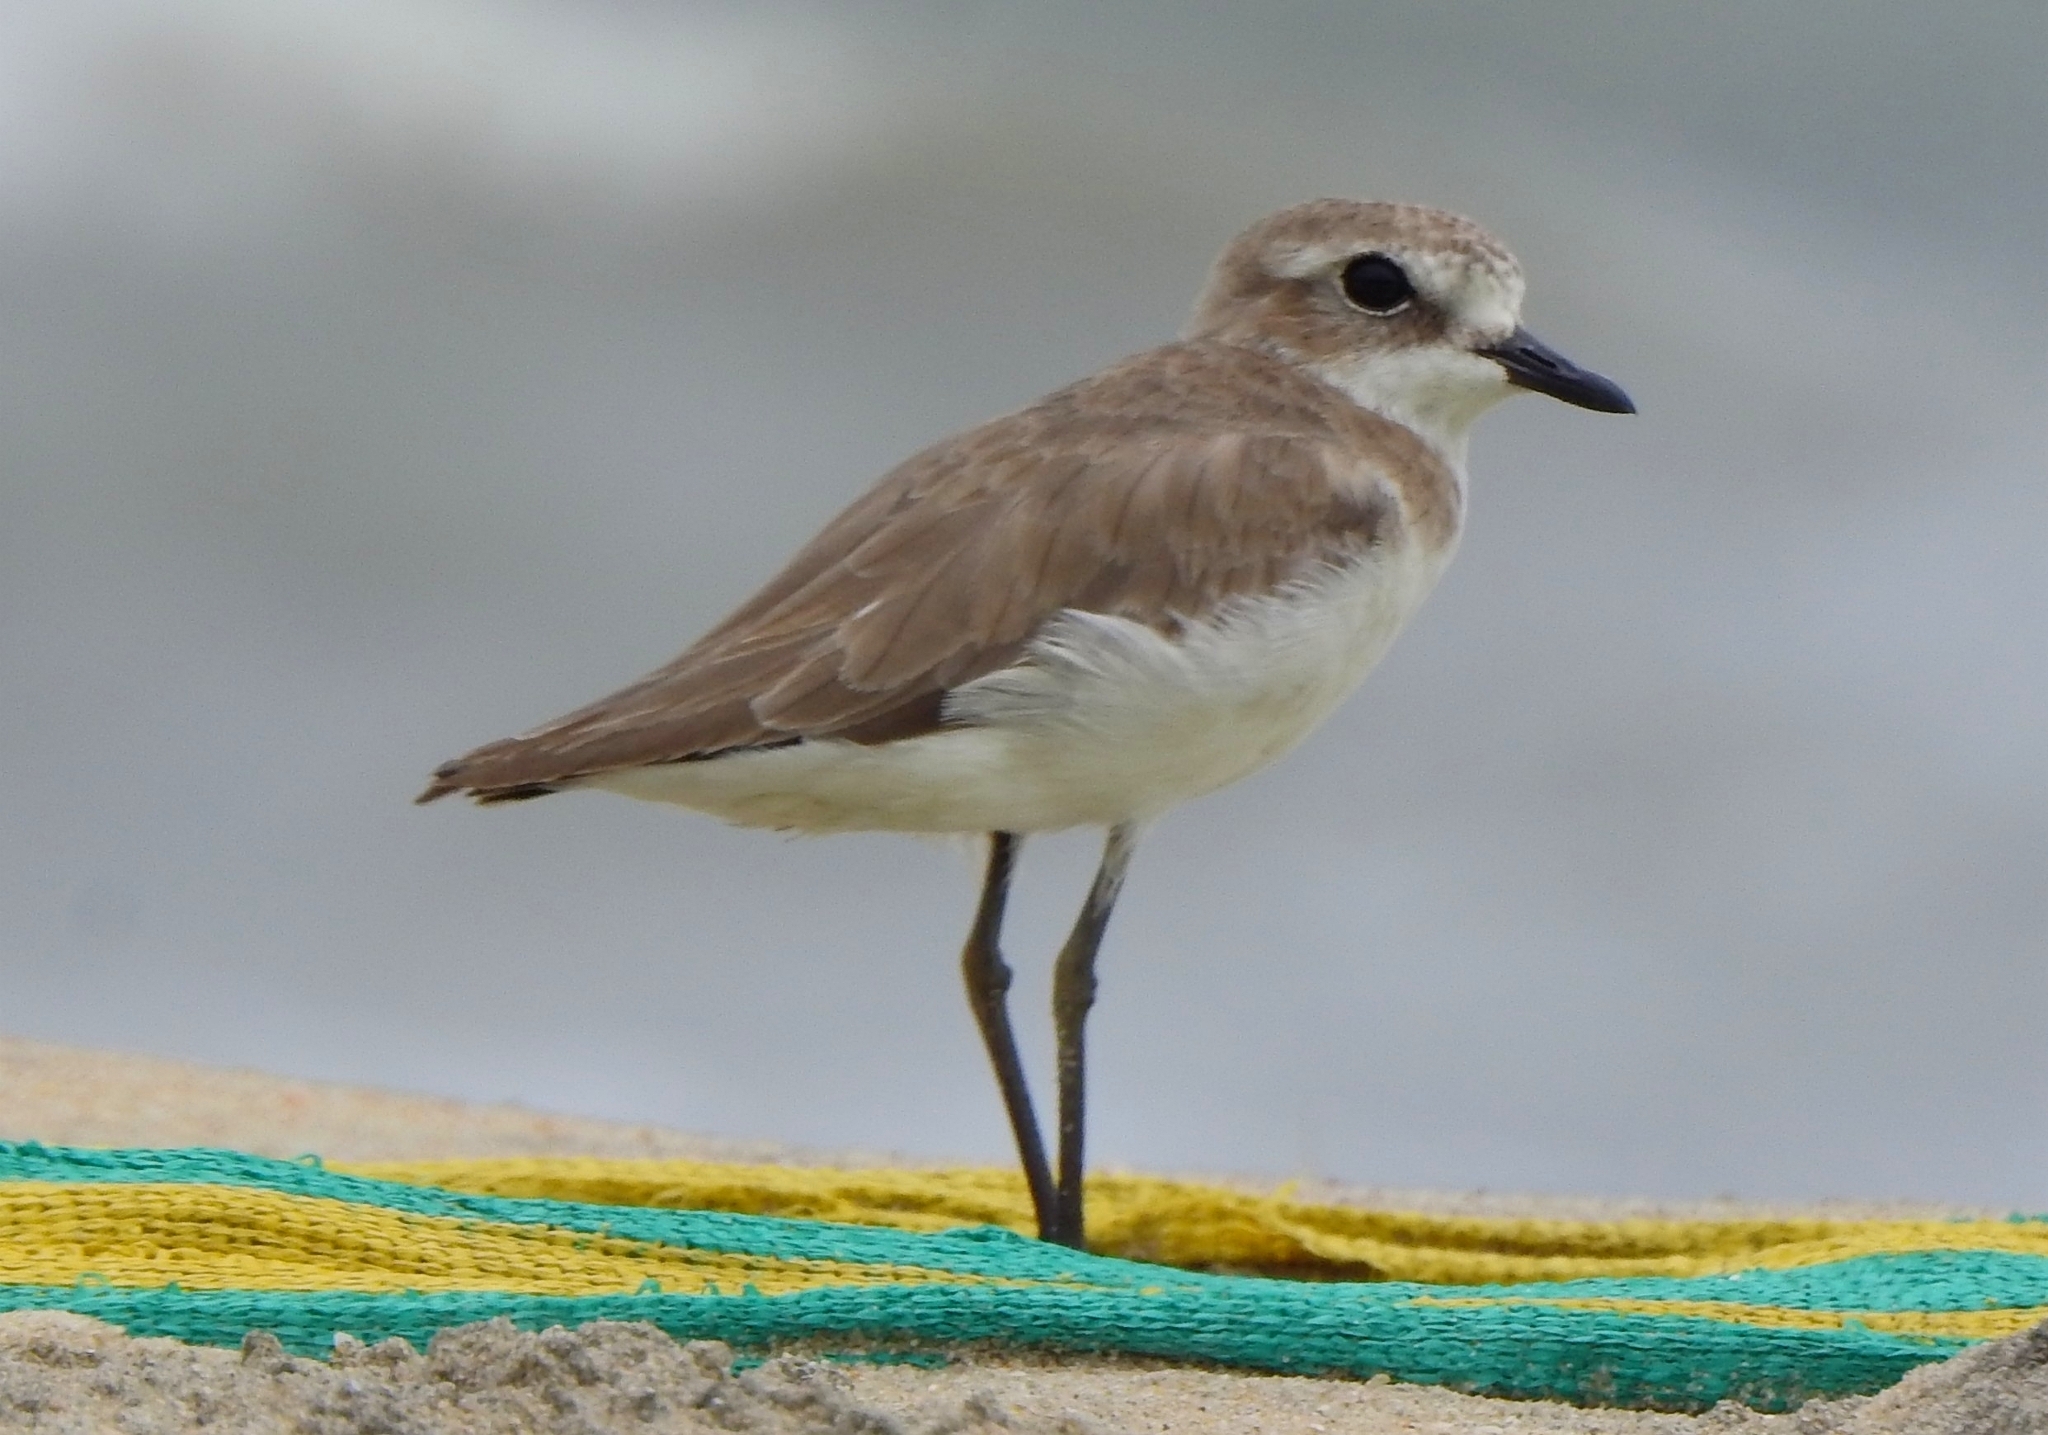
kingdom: Animalia
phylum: Chordata
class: Aves
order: Charadriiformes
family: Charadriidae
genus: Anarhynchus
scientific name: Anarhynchus
